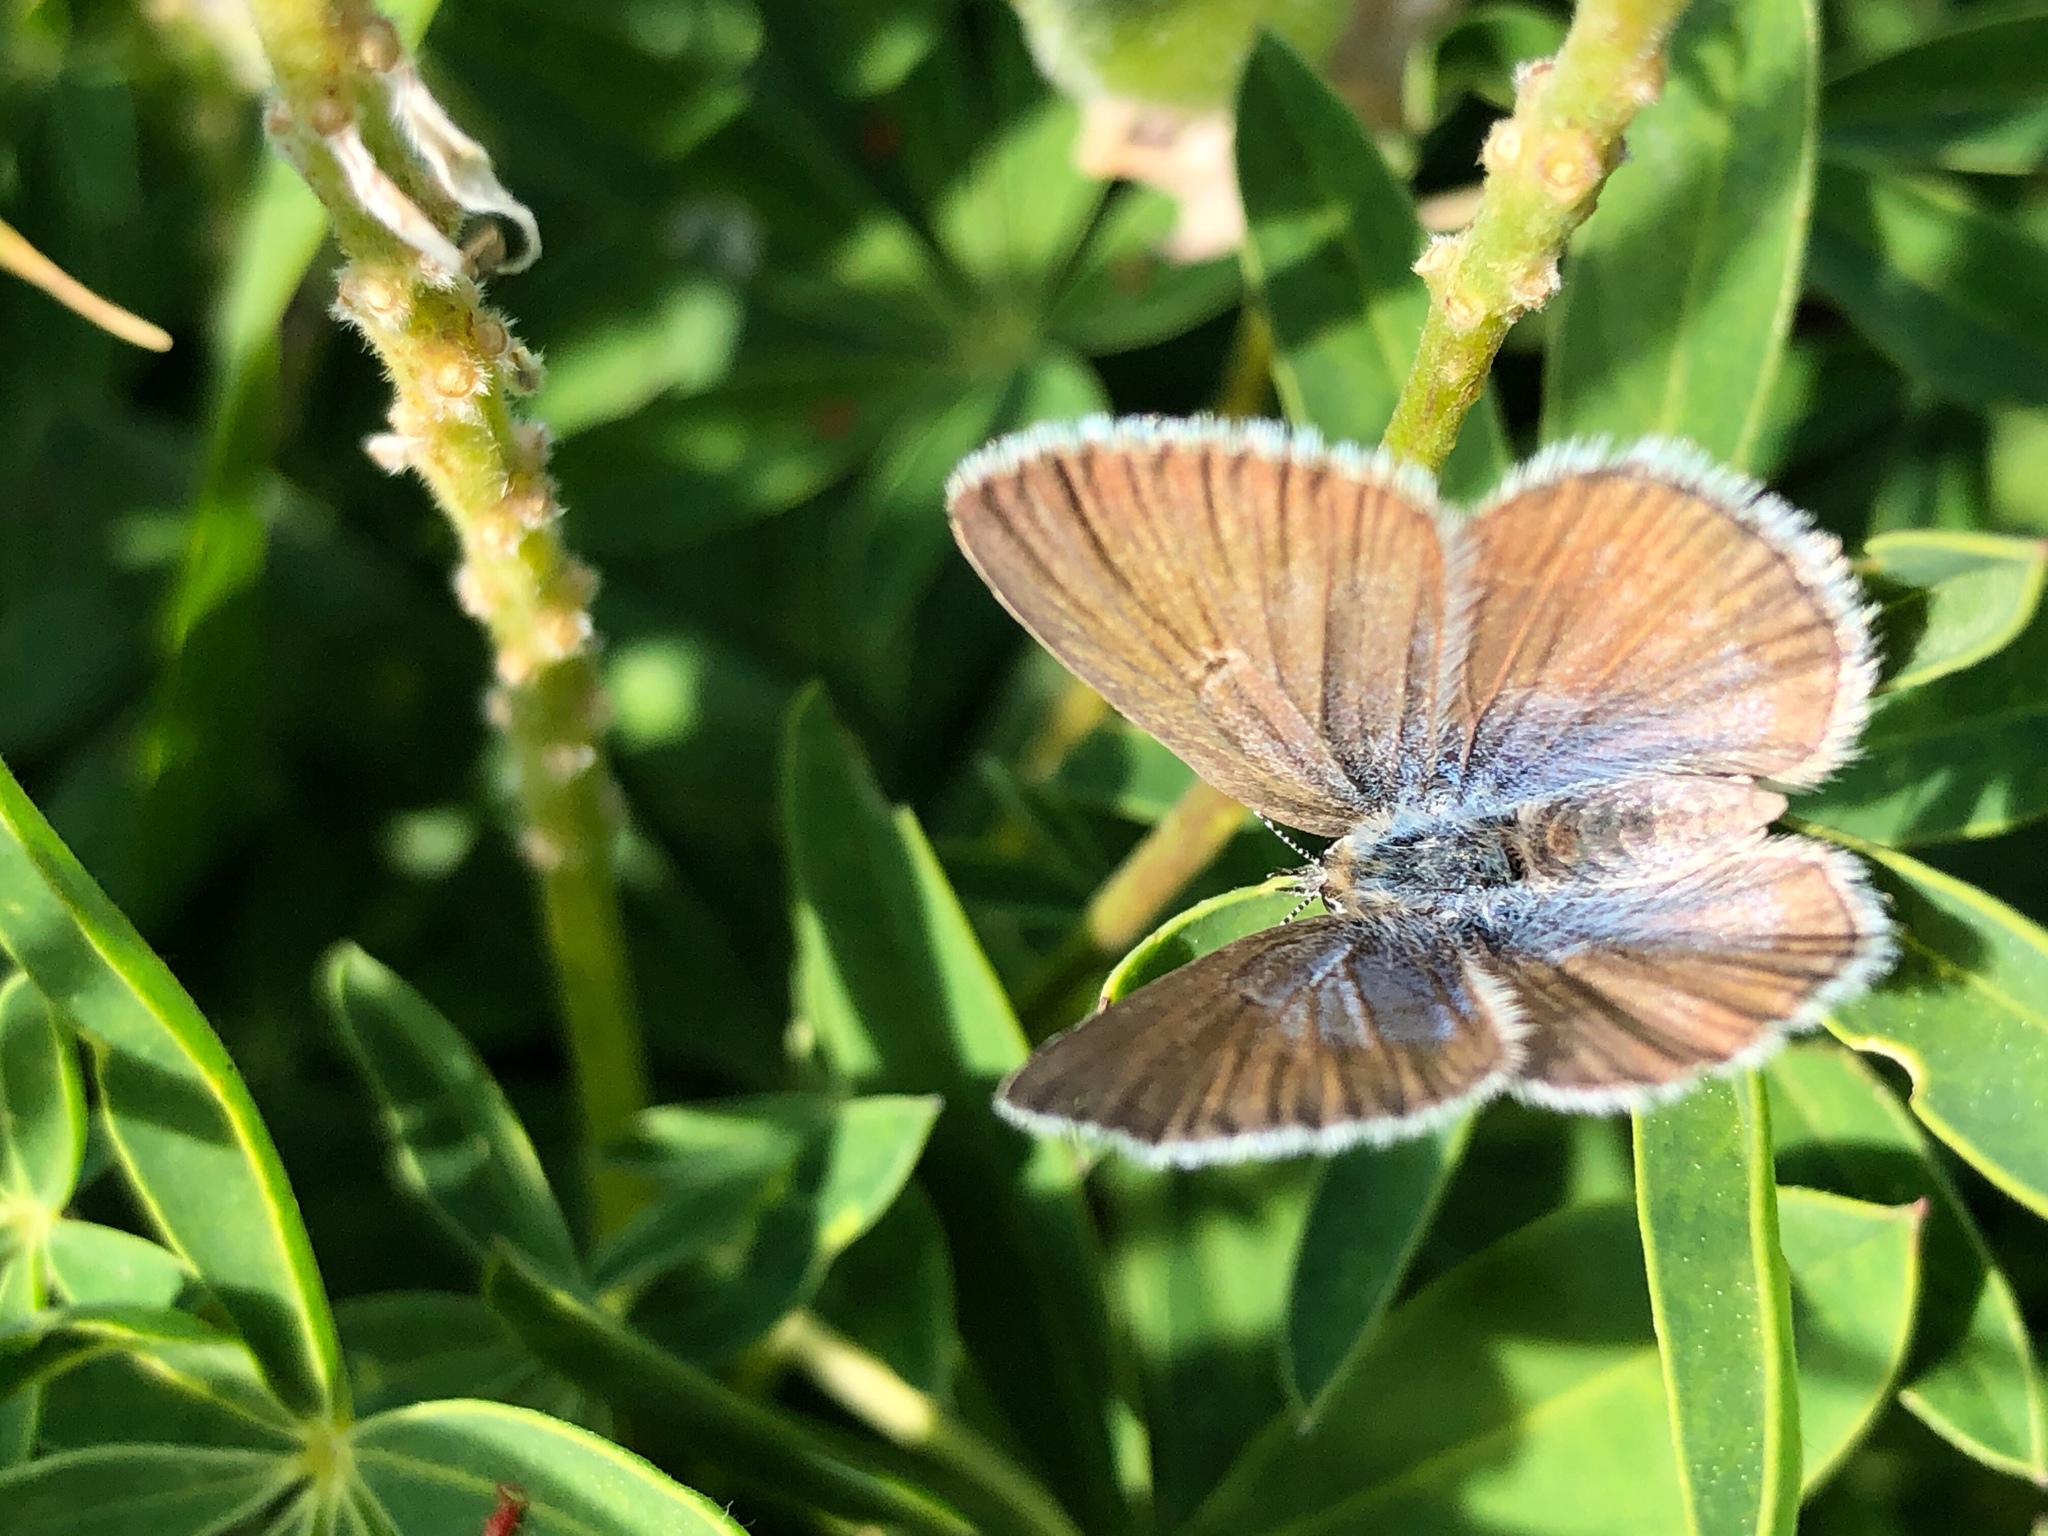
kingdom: Animalia
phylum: Arthropoda
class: Insecta
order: Lepidoptera
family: Lycaenidae
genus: Icaricia
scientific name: Icaricia icarioides
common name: Boisduval's blue
